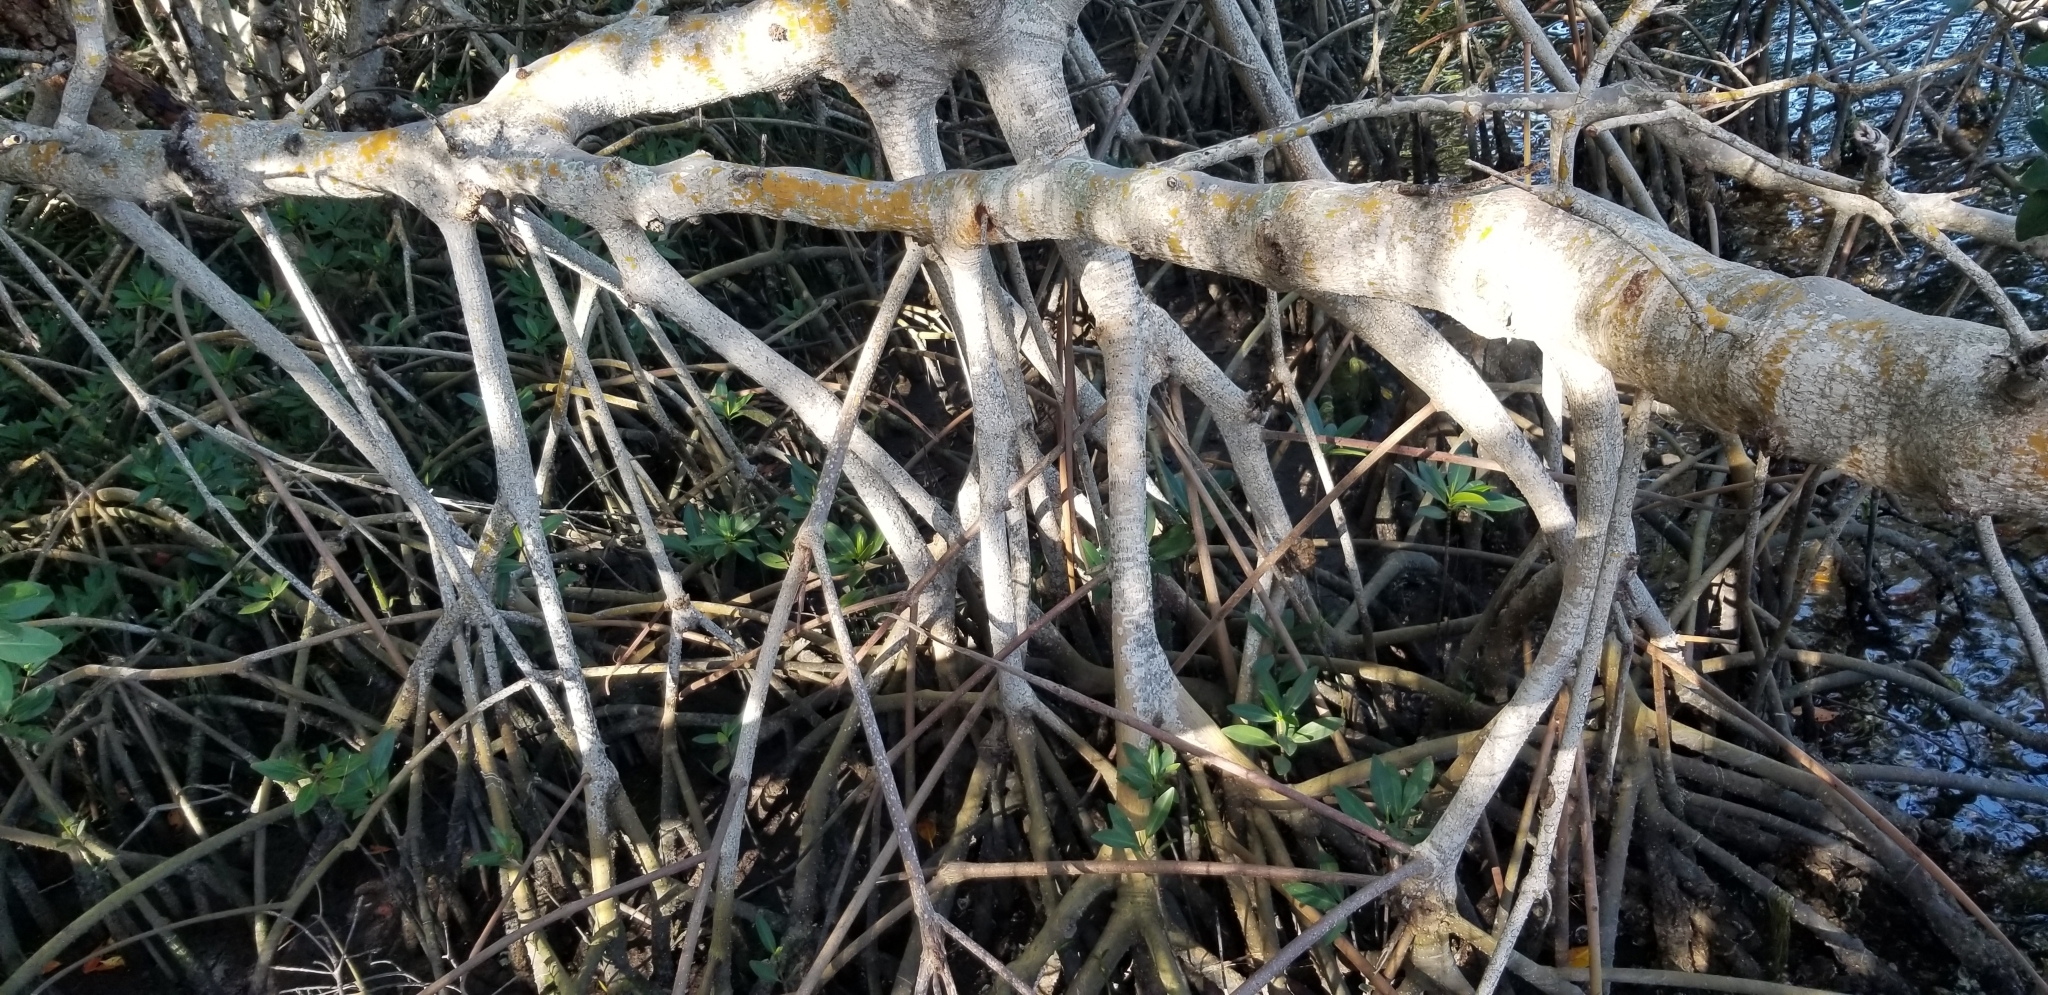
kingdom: Plantae
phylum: Tracheophyta
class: Magnoliopsida
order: Malpighiales
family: Rhizophoraceae
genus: Rhizophora
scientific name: Rhizophora mangle
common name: Red mangrove
